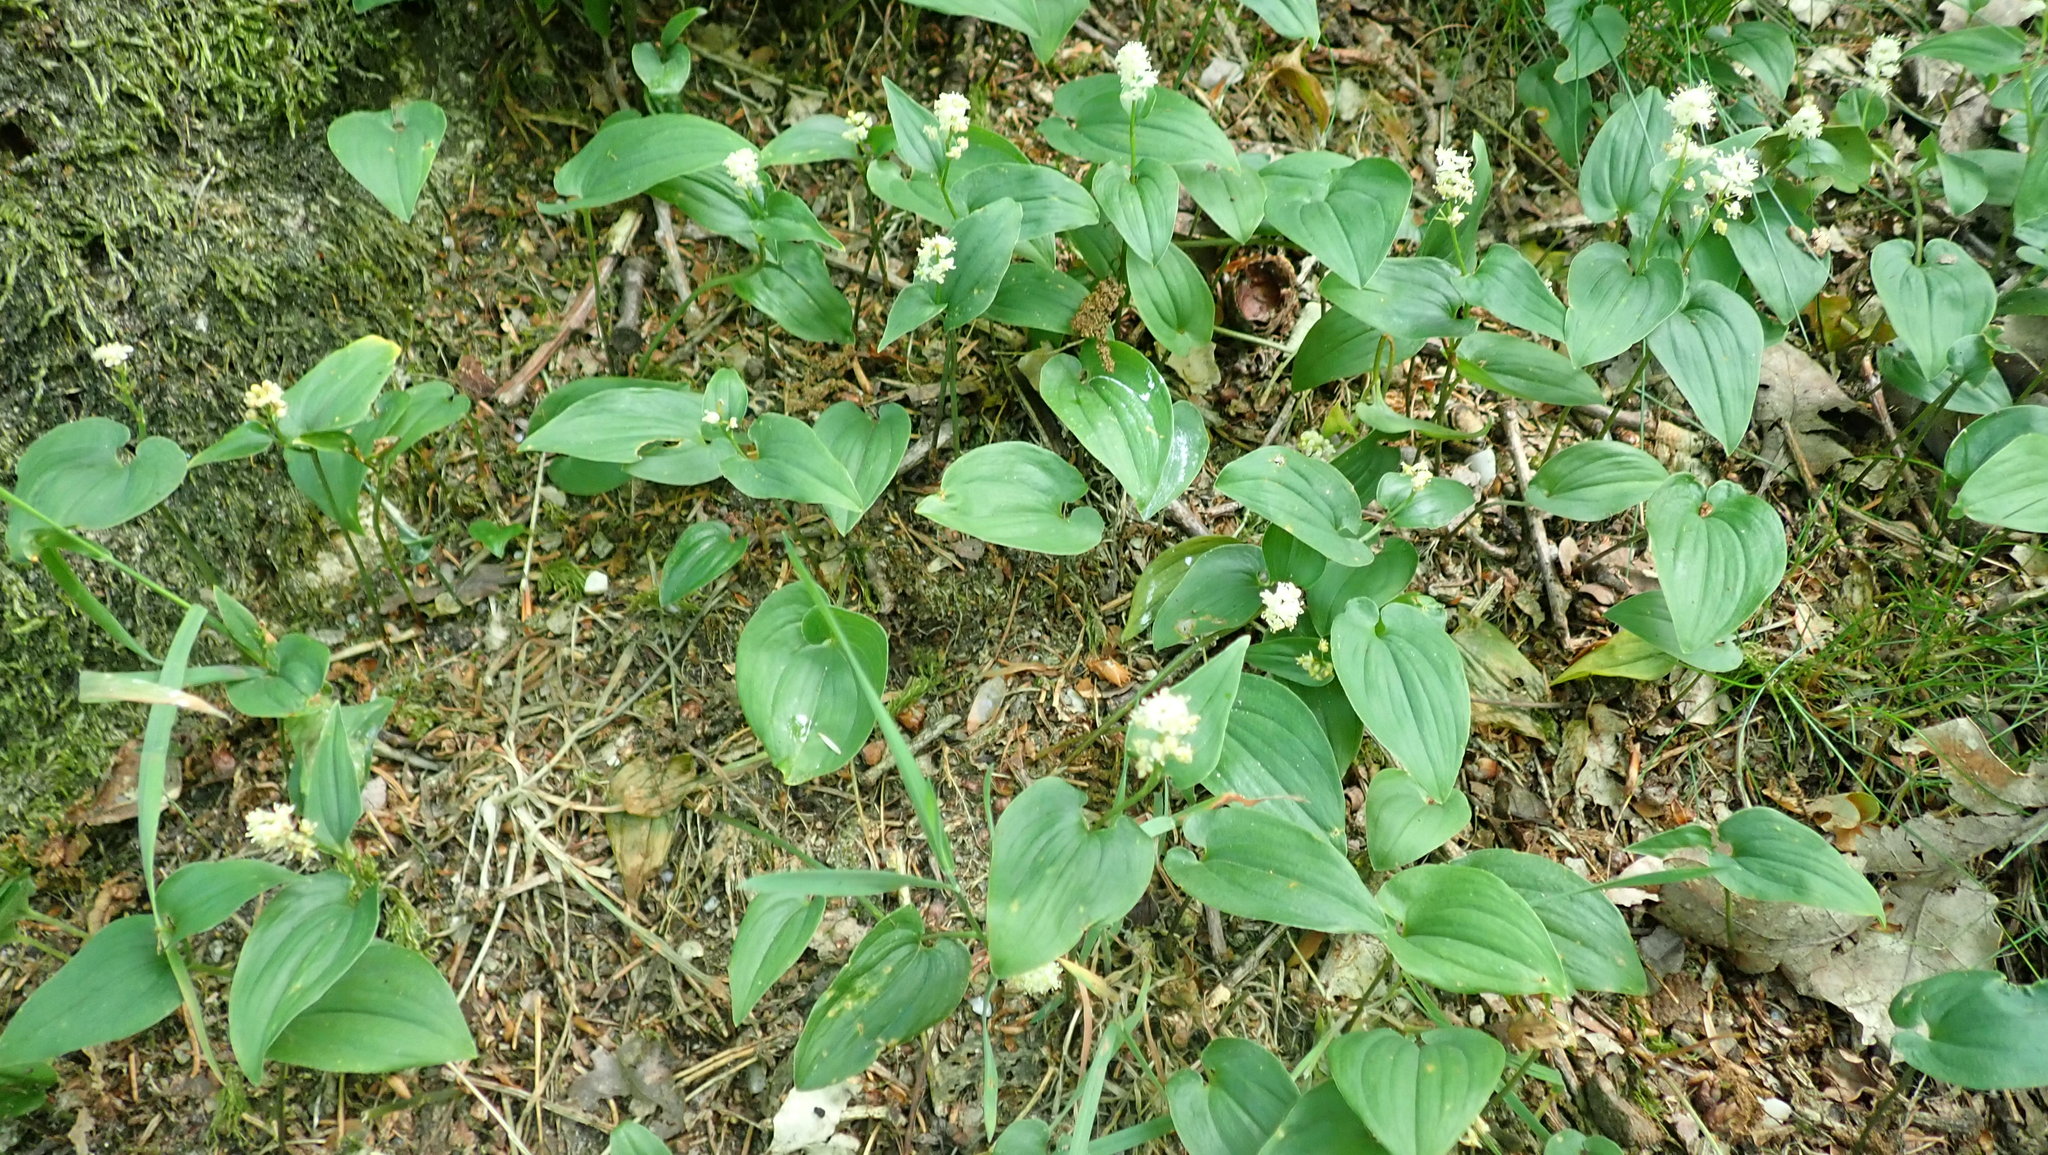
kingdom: Plantae
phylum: Tracheophyta
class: Liliopsida
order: Asparagales
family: Asparagaceae
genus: Maianthemum
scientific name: Maianthemum bifolium
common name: May lily
